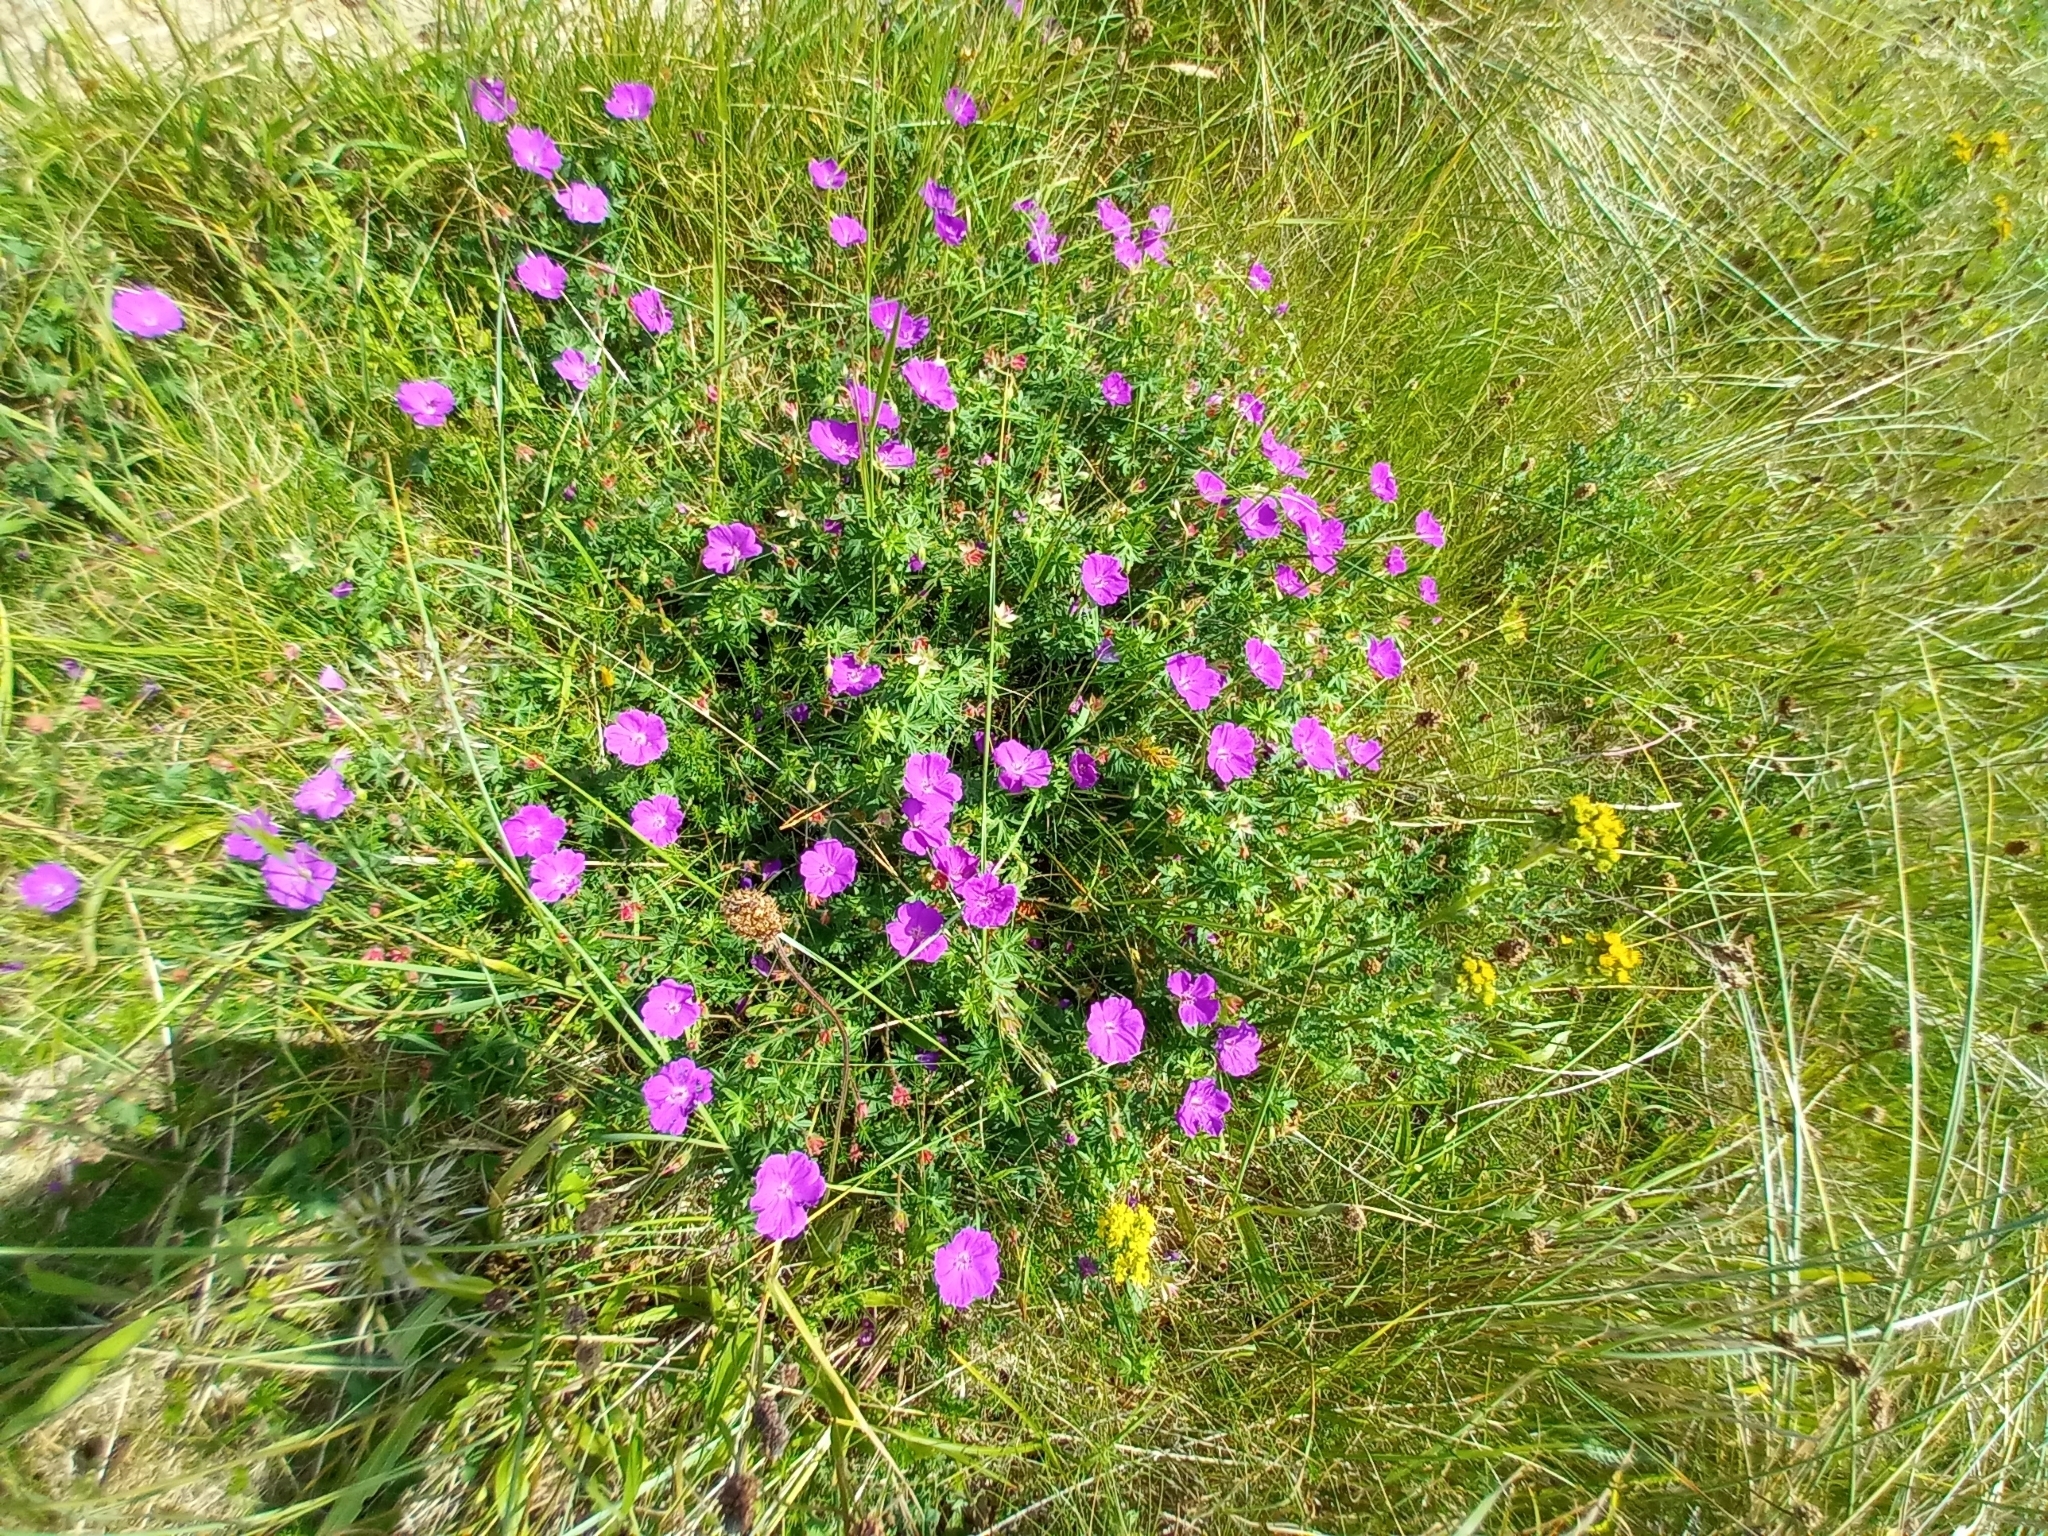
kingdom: Plantae
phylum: Tracheophyta
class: Magnoliopsida
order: Geraniales
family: Geraniaceae
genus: Geranium
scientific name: Geranium sanguineum
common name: Bloody crane's-bill
